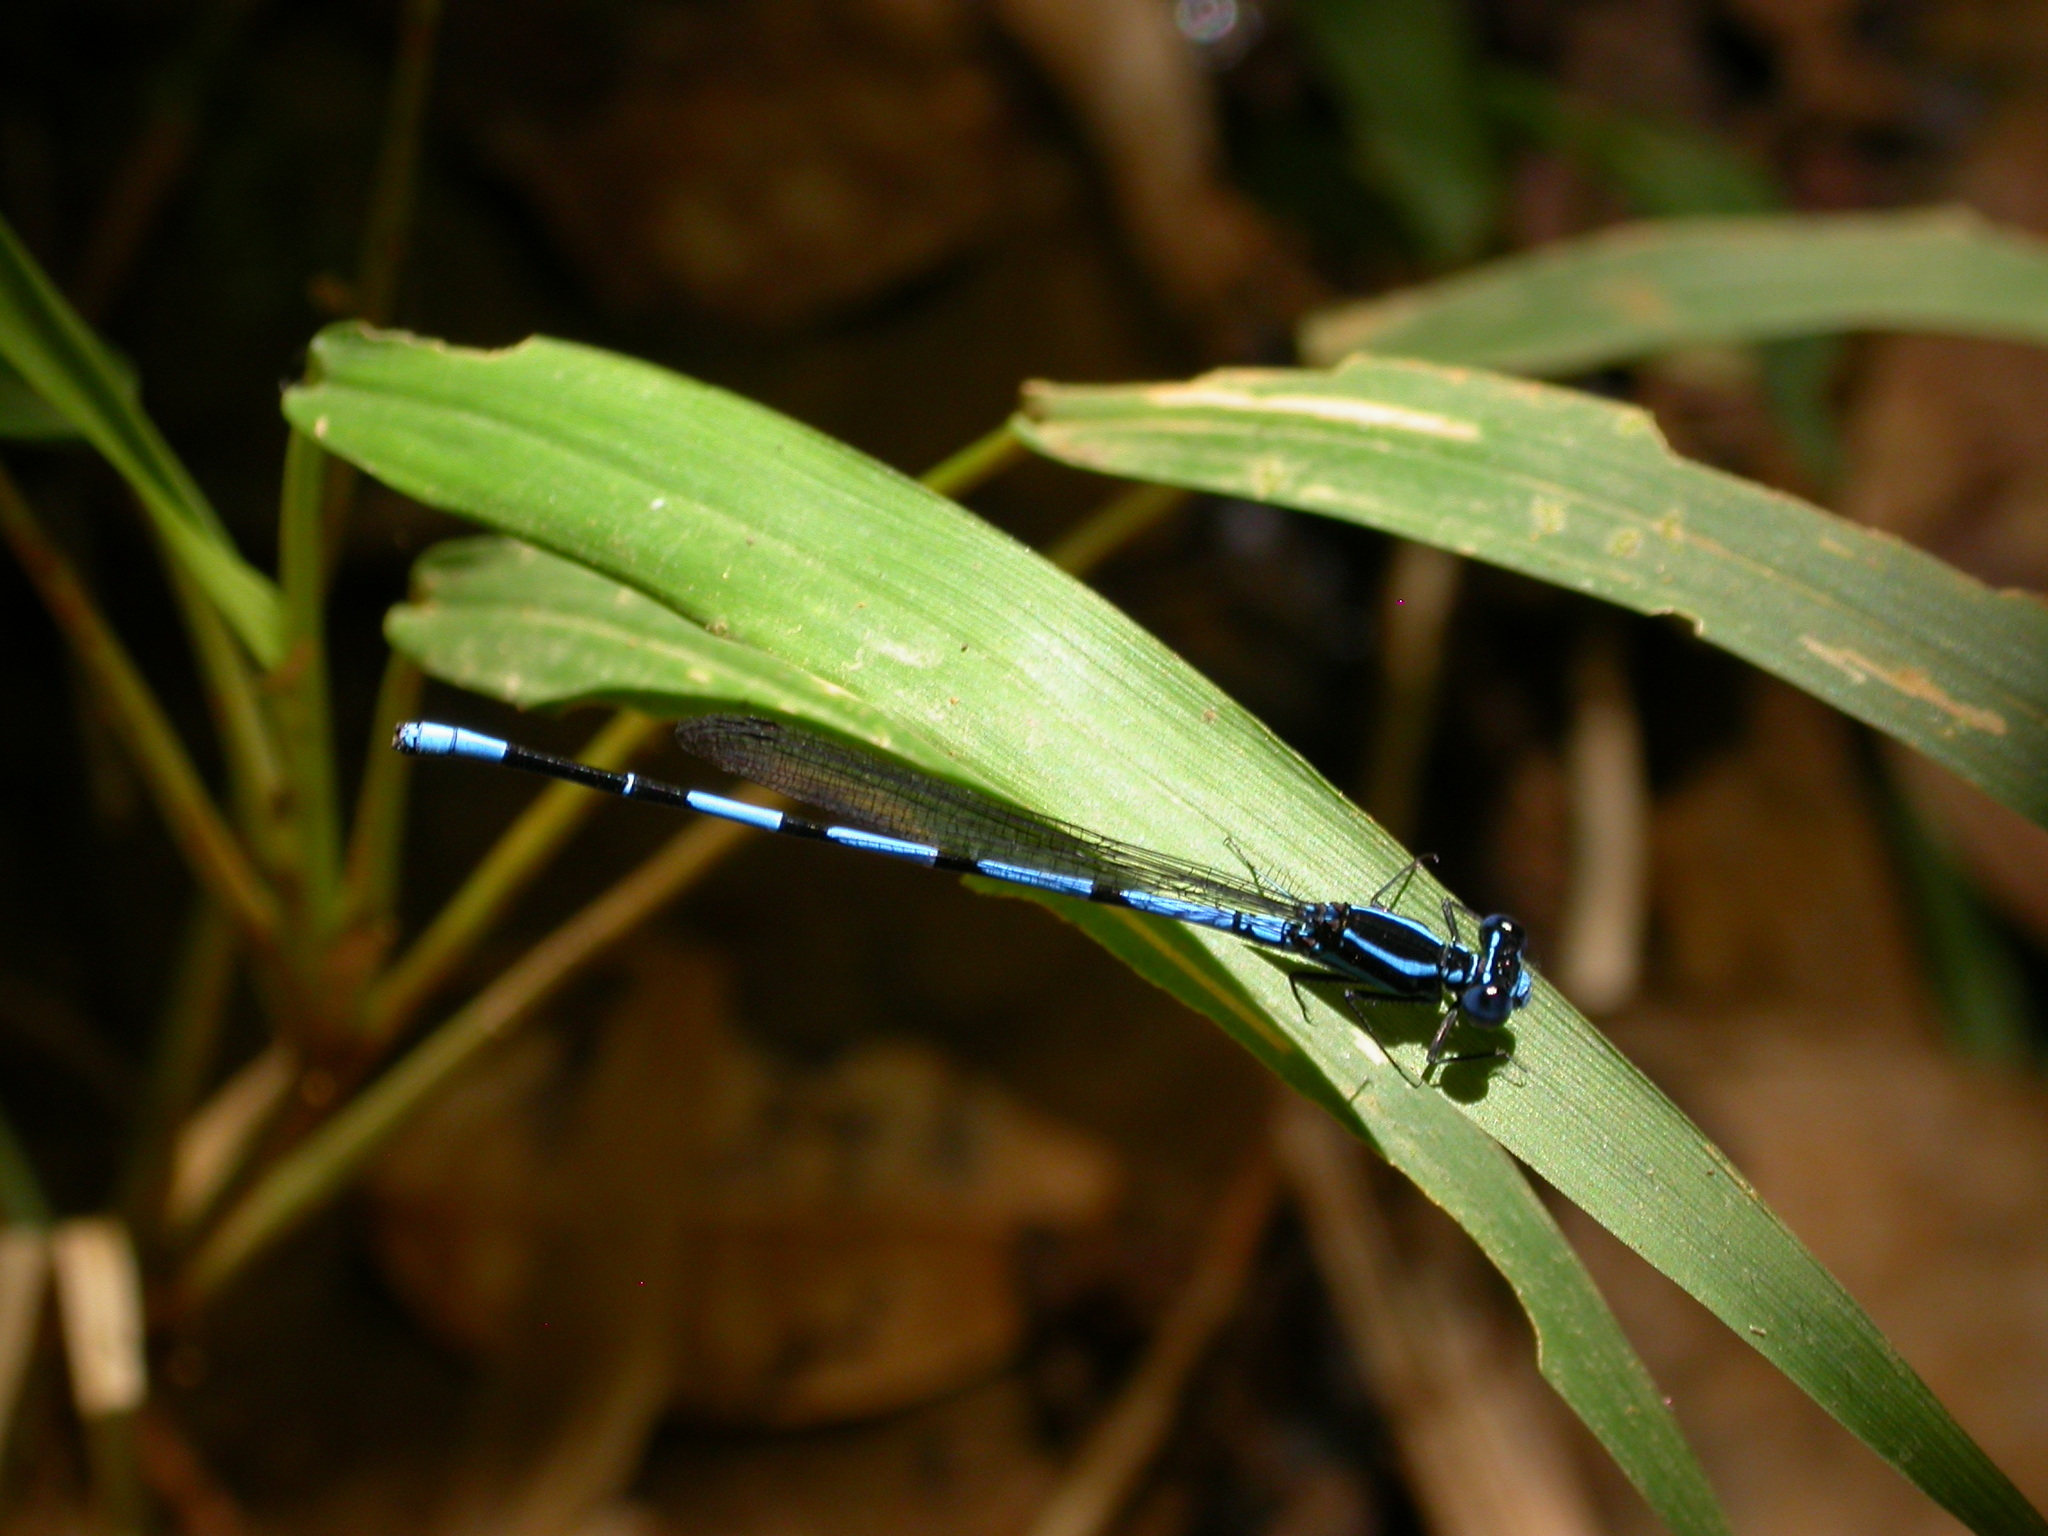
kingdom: Animalia
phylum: Arthropoda
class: Insecta
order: Odonata
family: Coenagrionidae
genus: Argia
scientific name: Argia concinna
